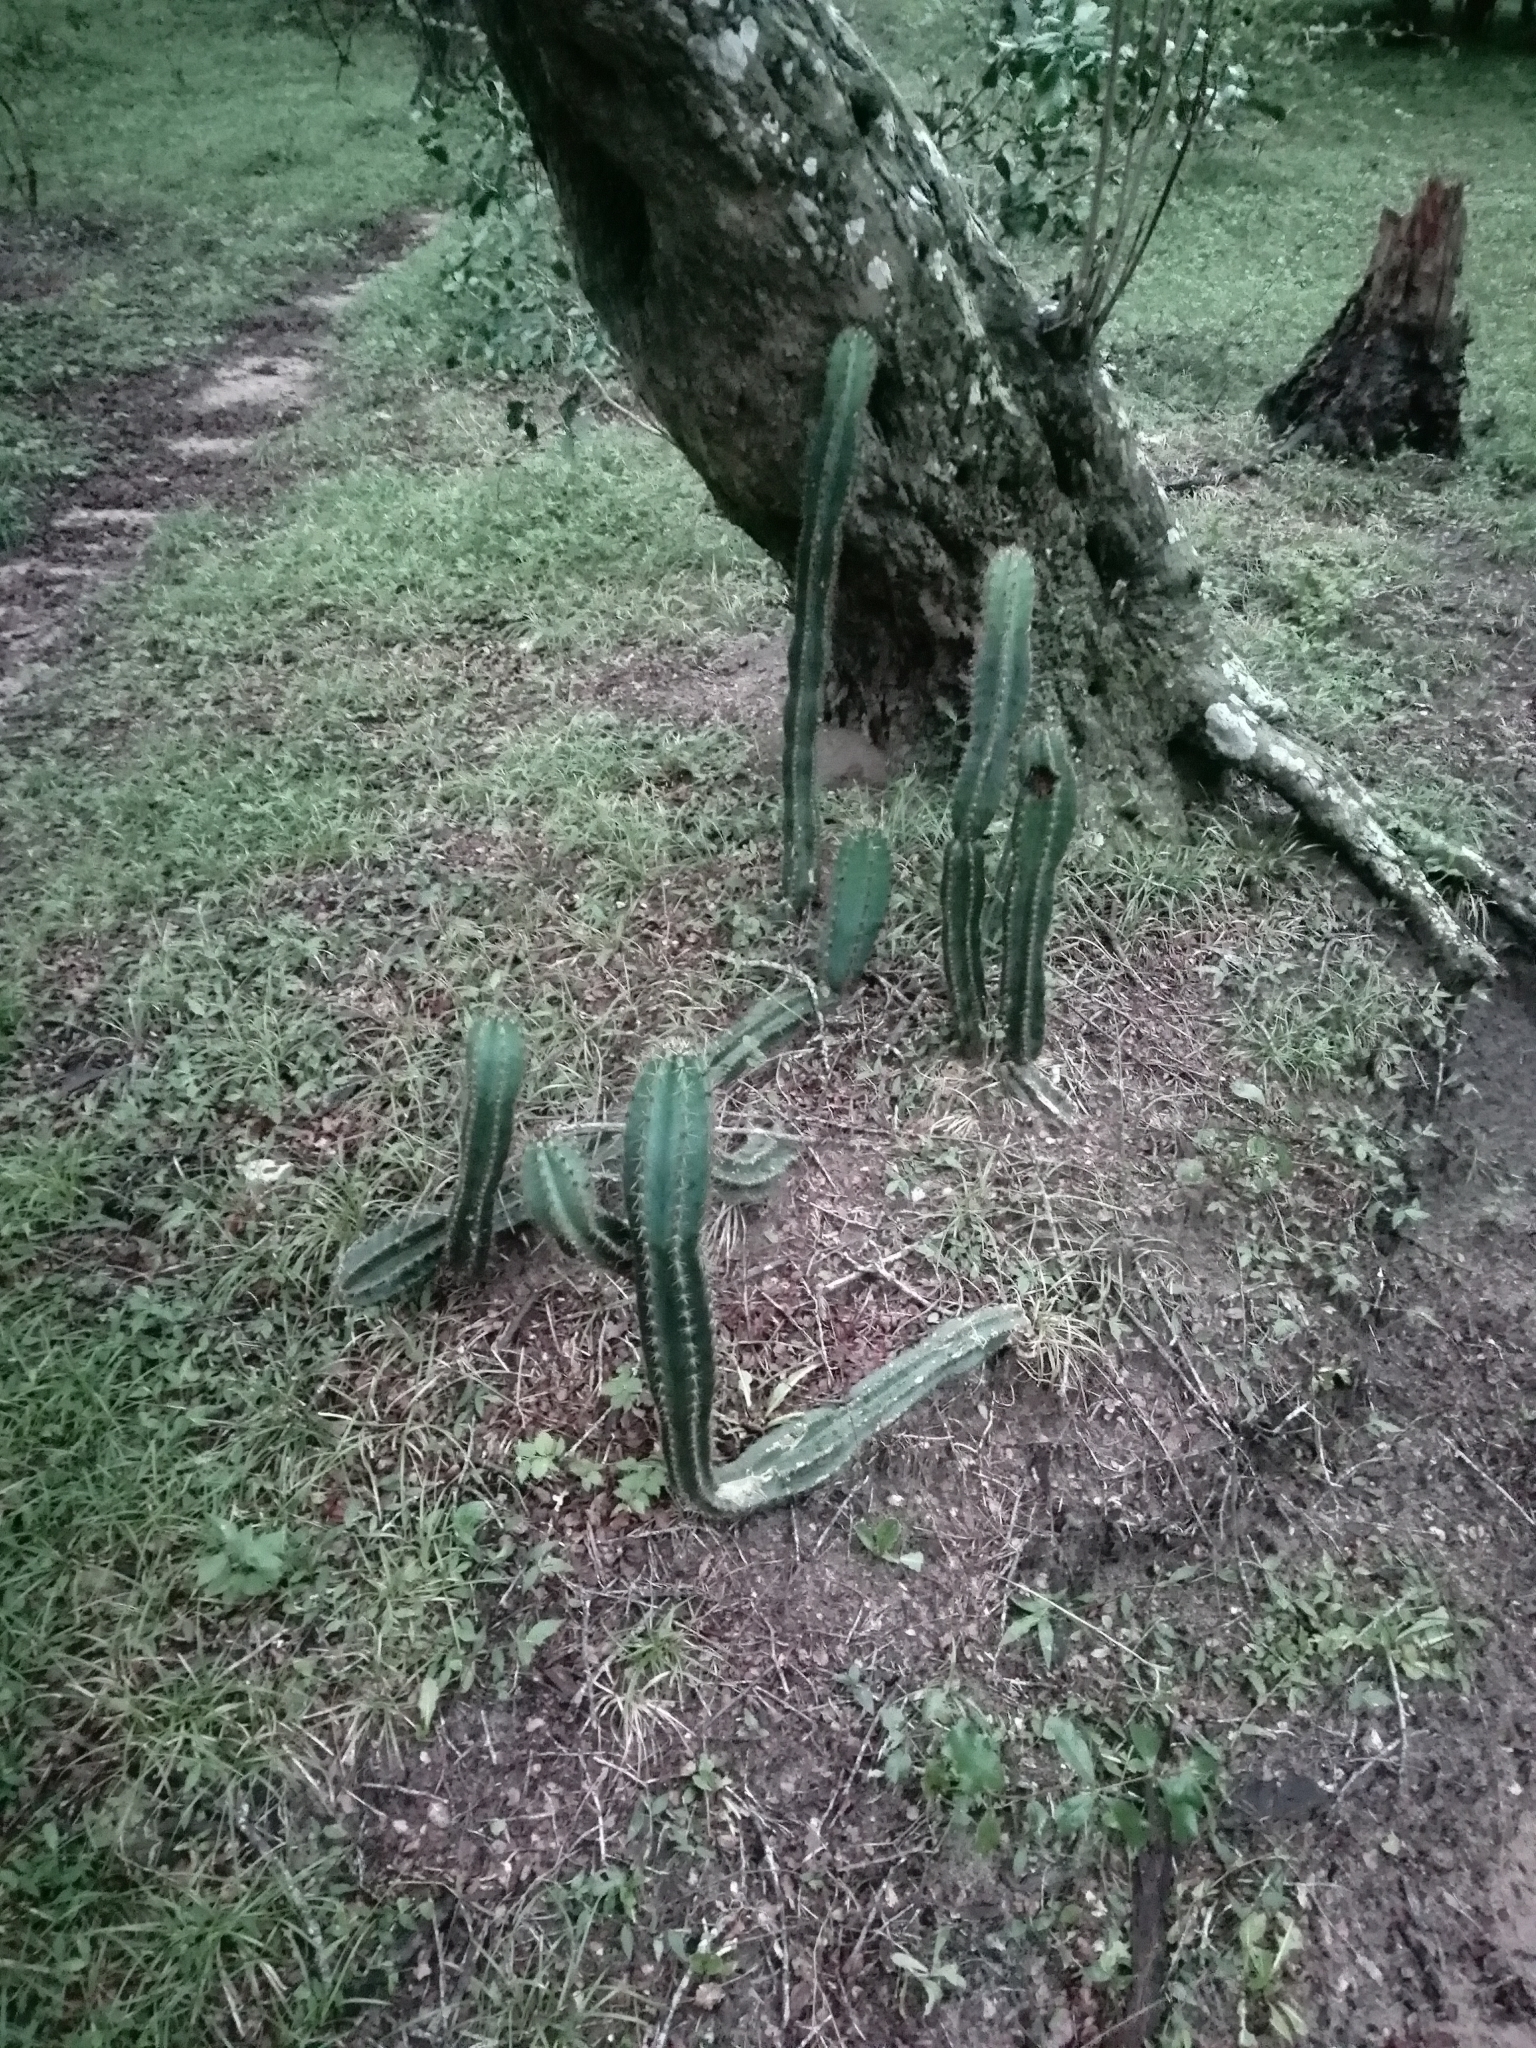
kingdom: Plantae
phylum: Tracheophyta
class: Magnoliopsida
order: Caryophyllales
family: Cactaceae
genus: Cereus
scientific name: Cereus hildmannianus
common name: Hedge cactus
